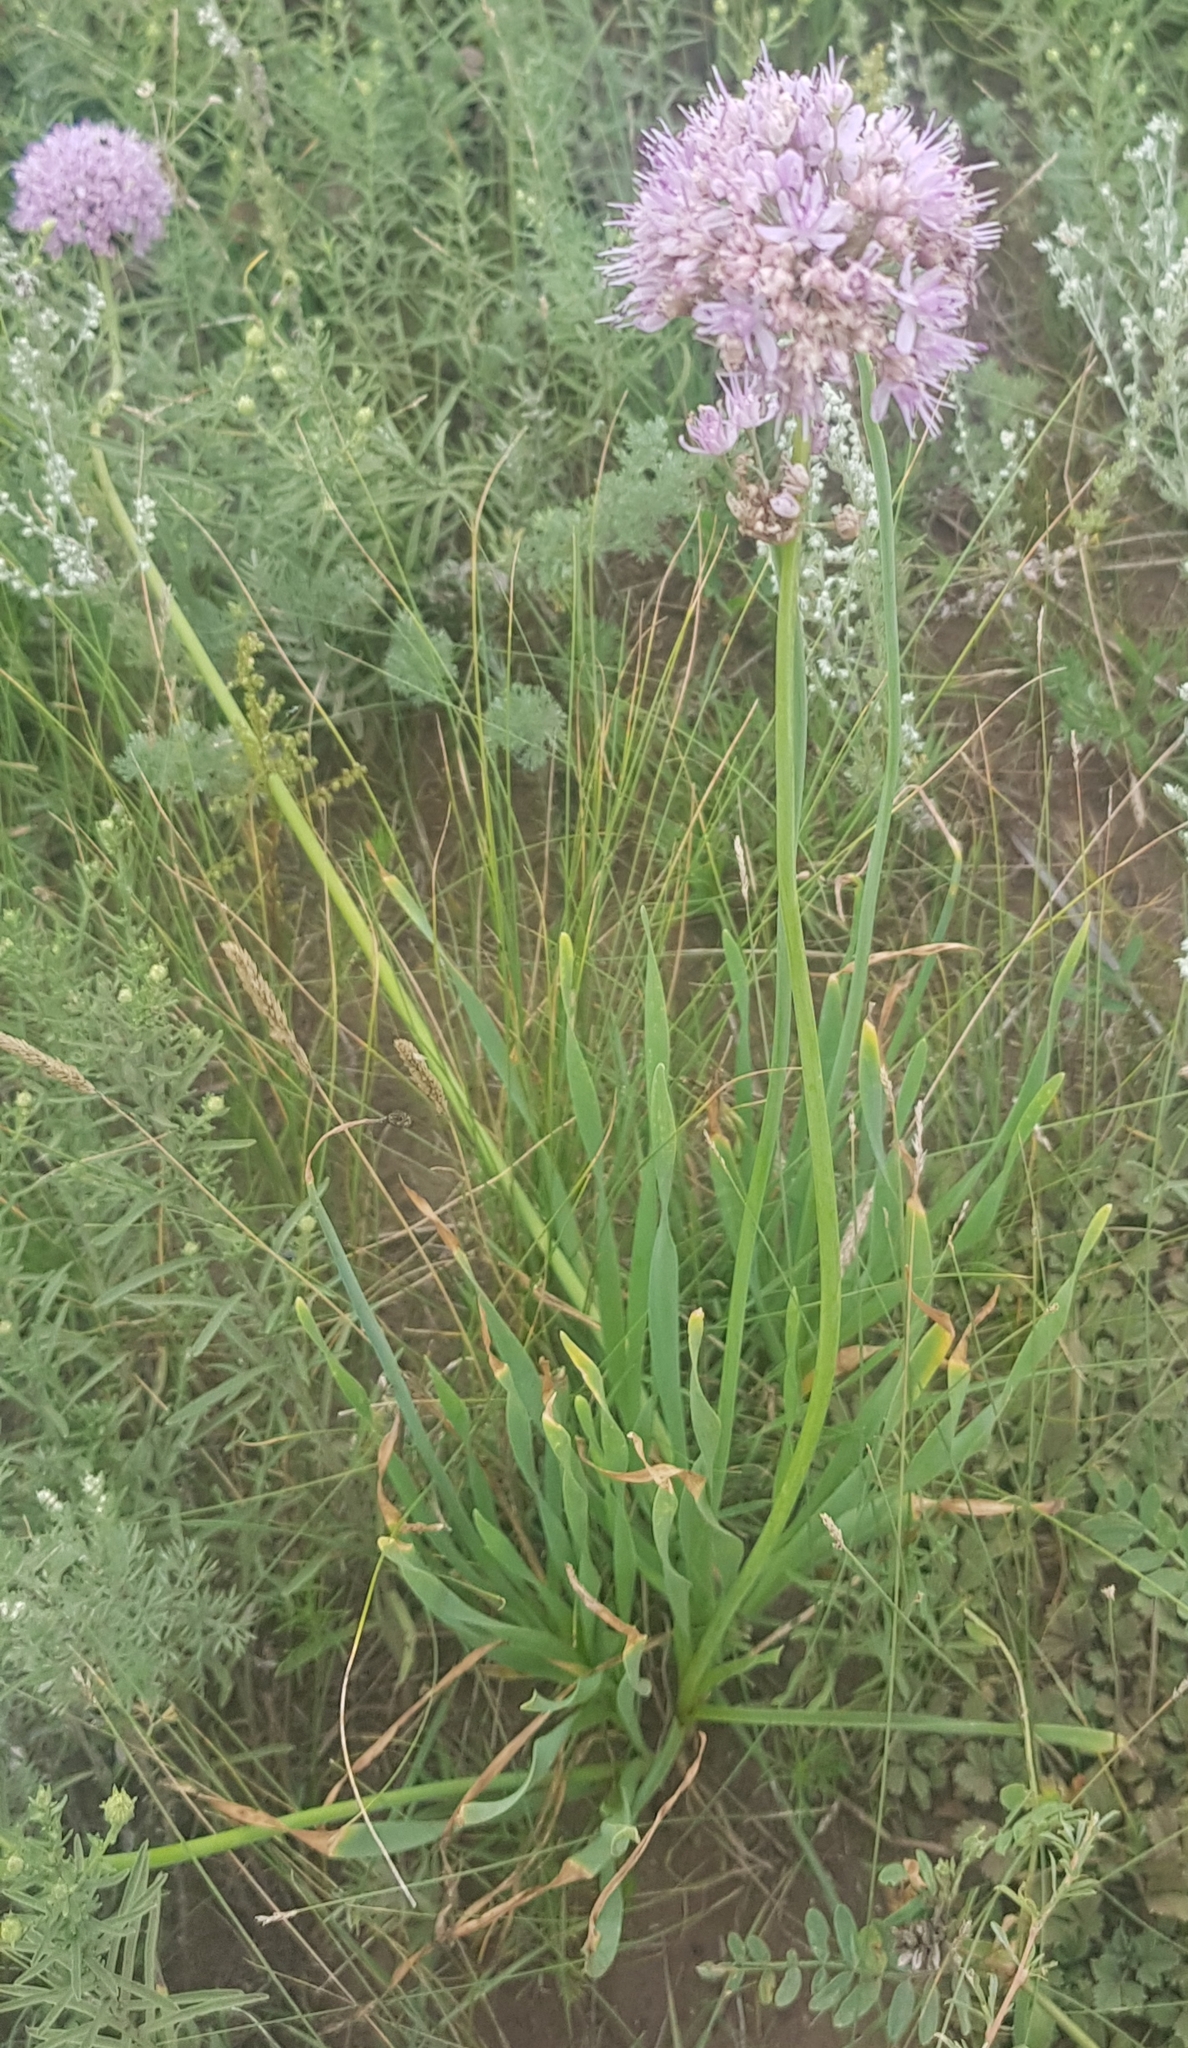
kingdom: Plantae
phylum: Tracheophyta
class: Liliopsida
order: Asparagales
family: Amaryllidaceae
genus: Allium
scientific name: Allium senescens
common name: German garlic
